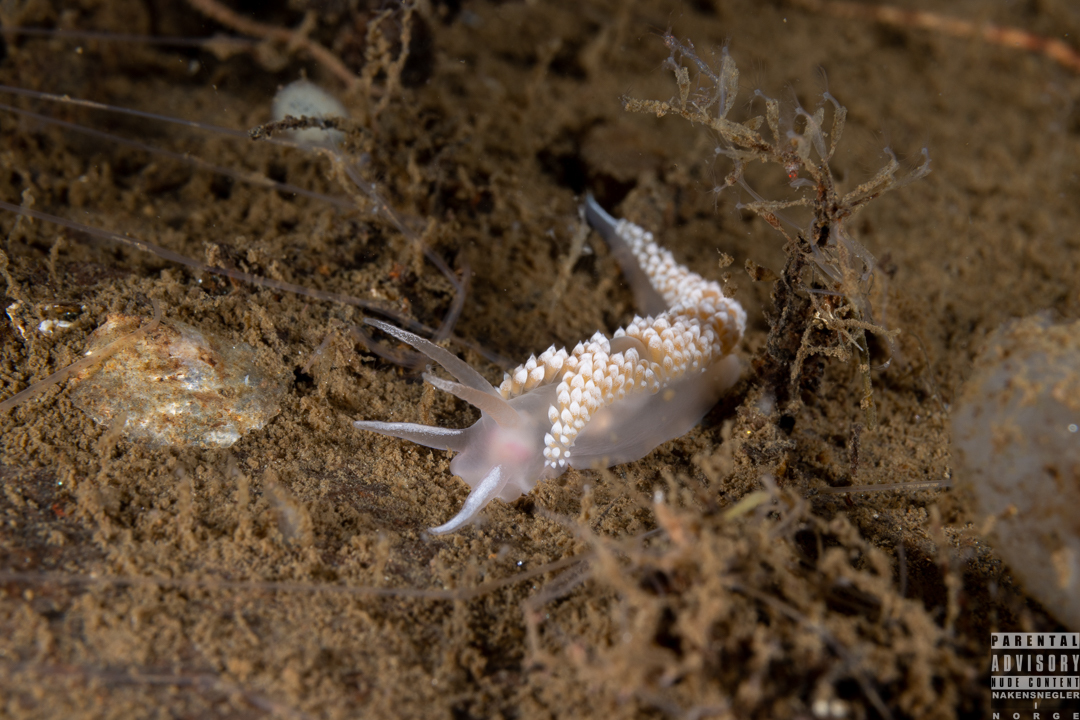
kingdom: Animalia
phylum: Mollusca
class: Gastropoda
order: Nudibranchia
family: Coryphellidae
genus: Coryphella
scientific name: Coryphella verrucosa
